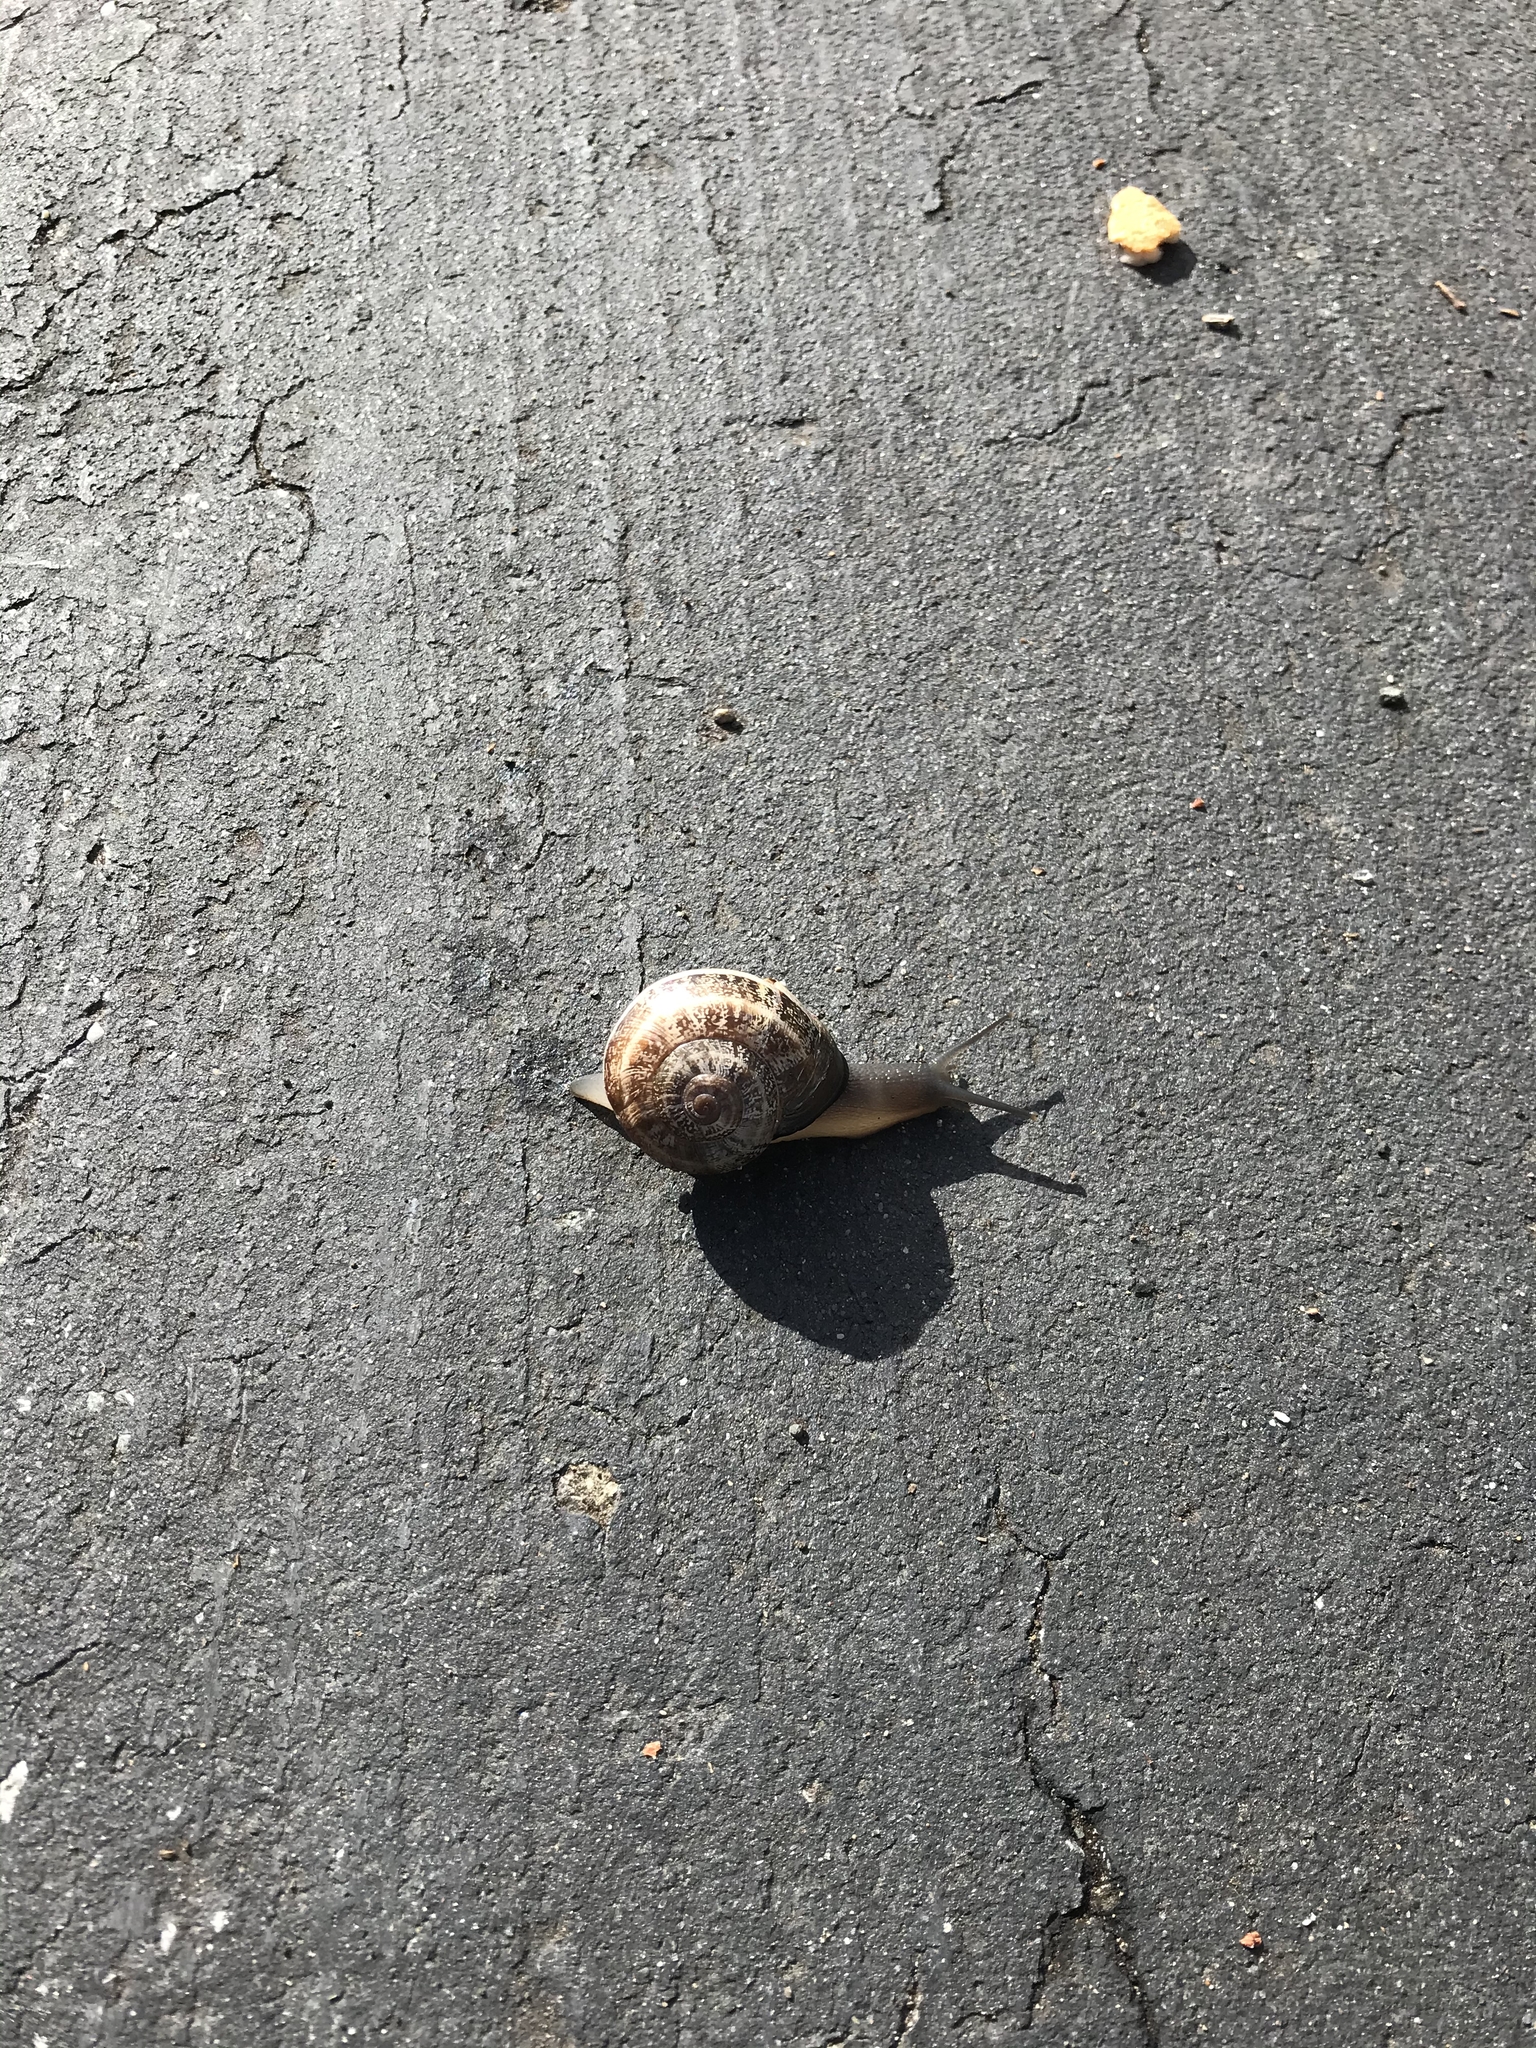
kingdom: Animalia
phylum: Mollusca
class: Gastropoda
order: Stylommatophora
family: Helicidae
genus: Otala
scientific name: Otala lactea
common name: Milk snail
